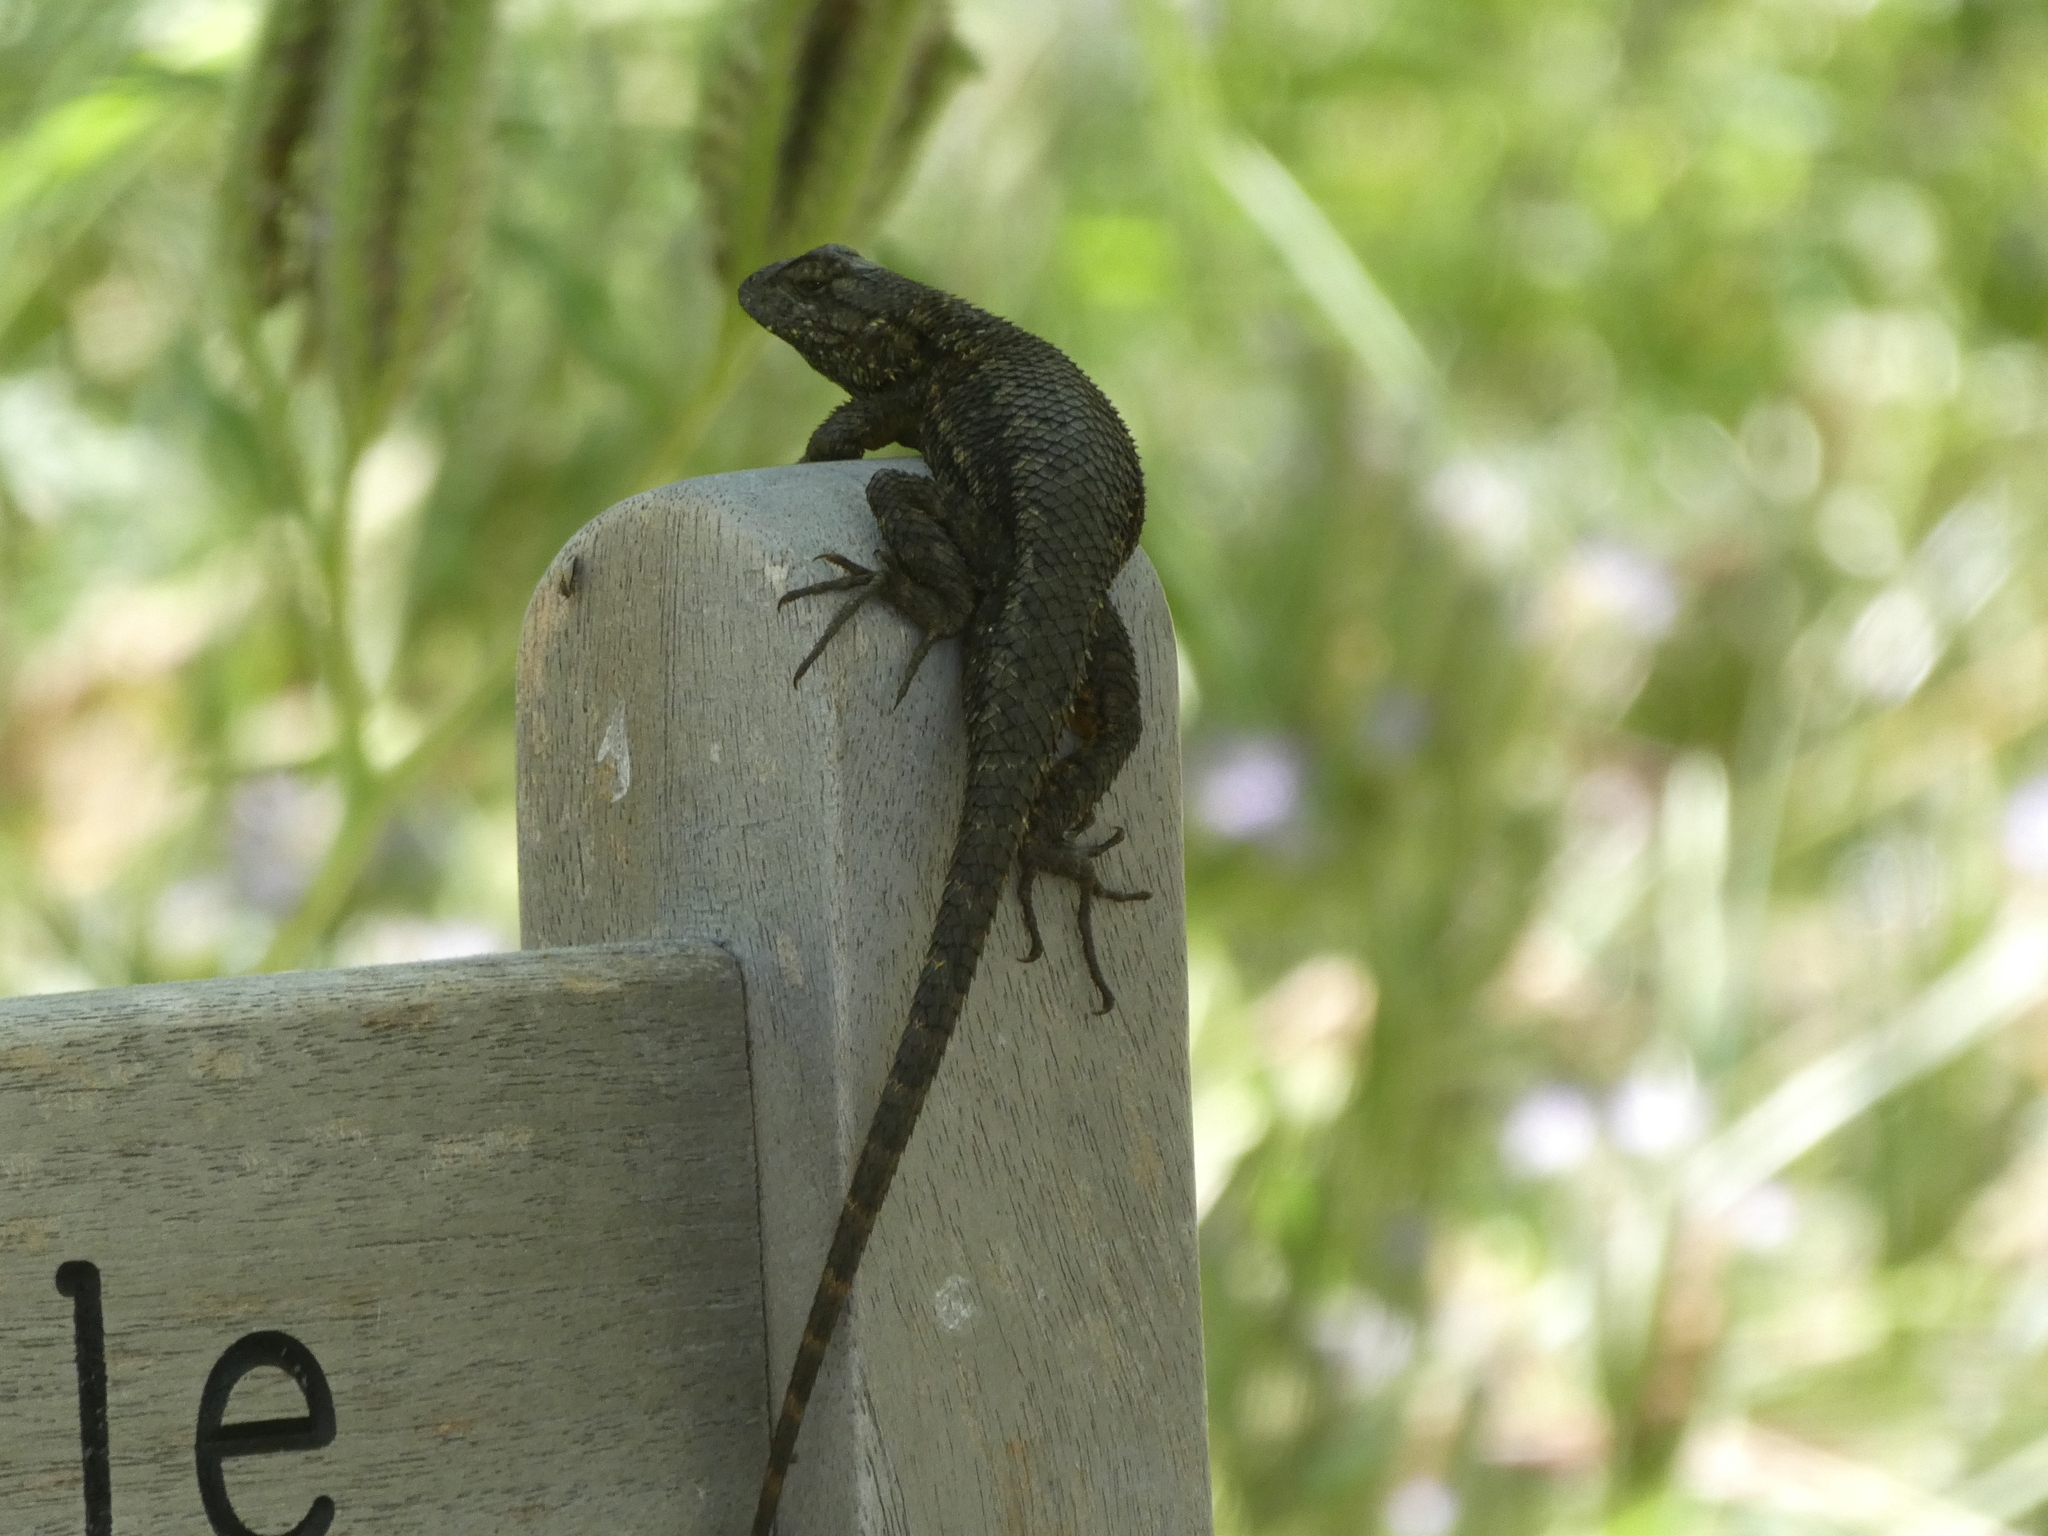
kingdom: Animalia
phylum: Chordata
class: Squamata
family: Phrynosomatidae
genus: Sceloporus
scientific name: Sceloporus occidentalis
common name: Western fence lizard
